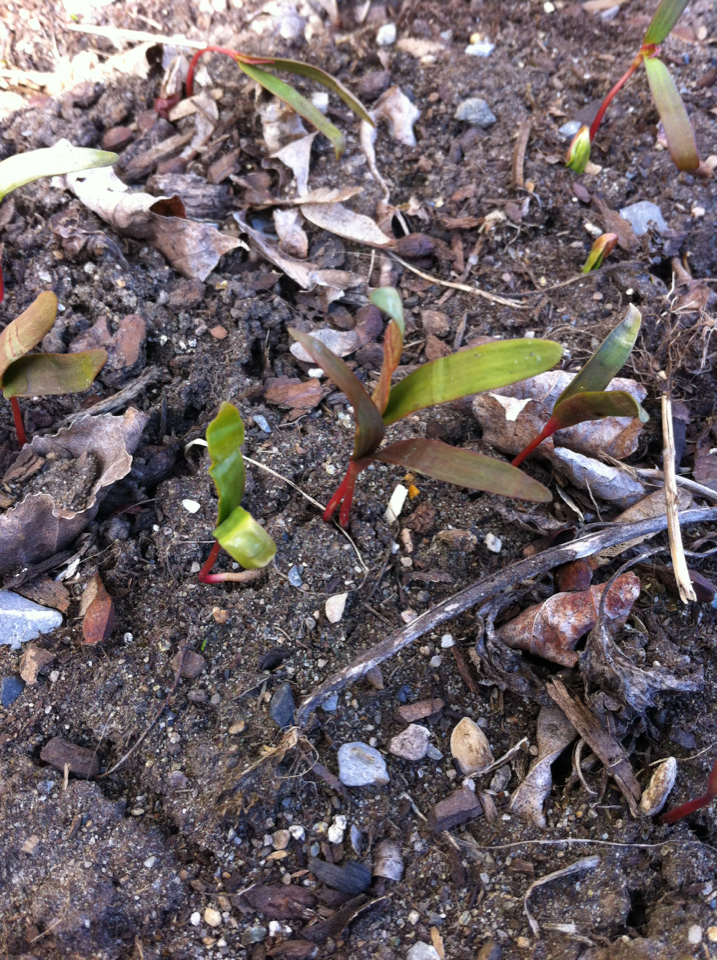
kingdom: Plantae
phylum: Tracheophyta
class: Magnoliopsida
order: Sapindales
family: Sapindaceae
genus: Acer
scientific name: Acer saccharum
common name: Sugar maple
